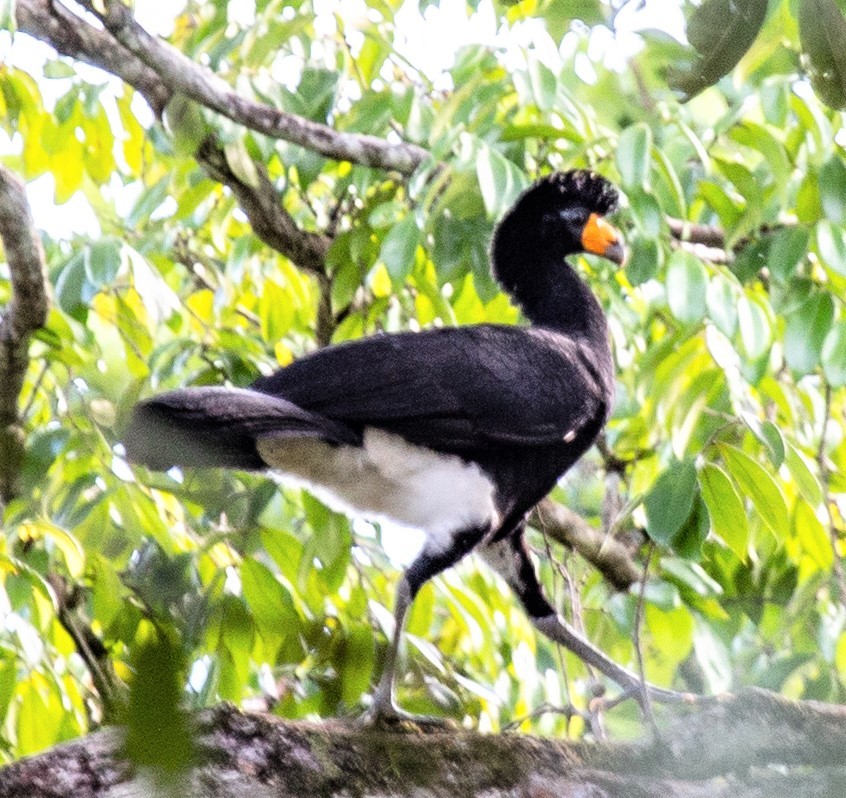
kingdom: Animalia
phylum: Chordata
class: Aves
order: Galliformes
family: Cracidae
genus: Crax
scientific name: Crax alector
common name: Black curassow
